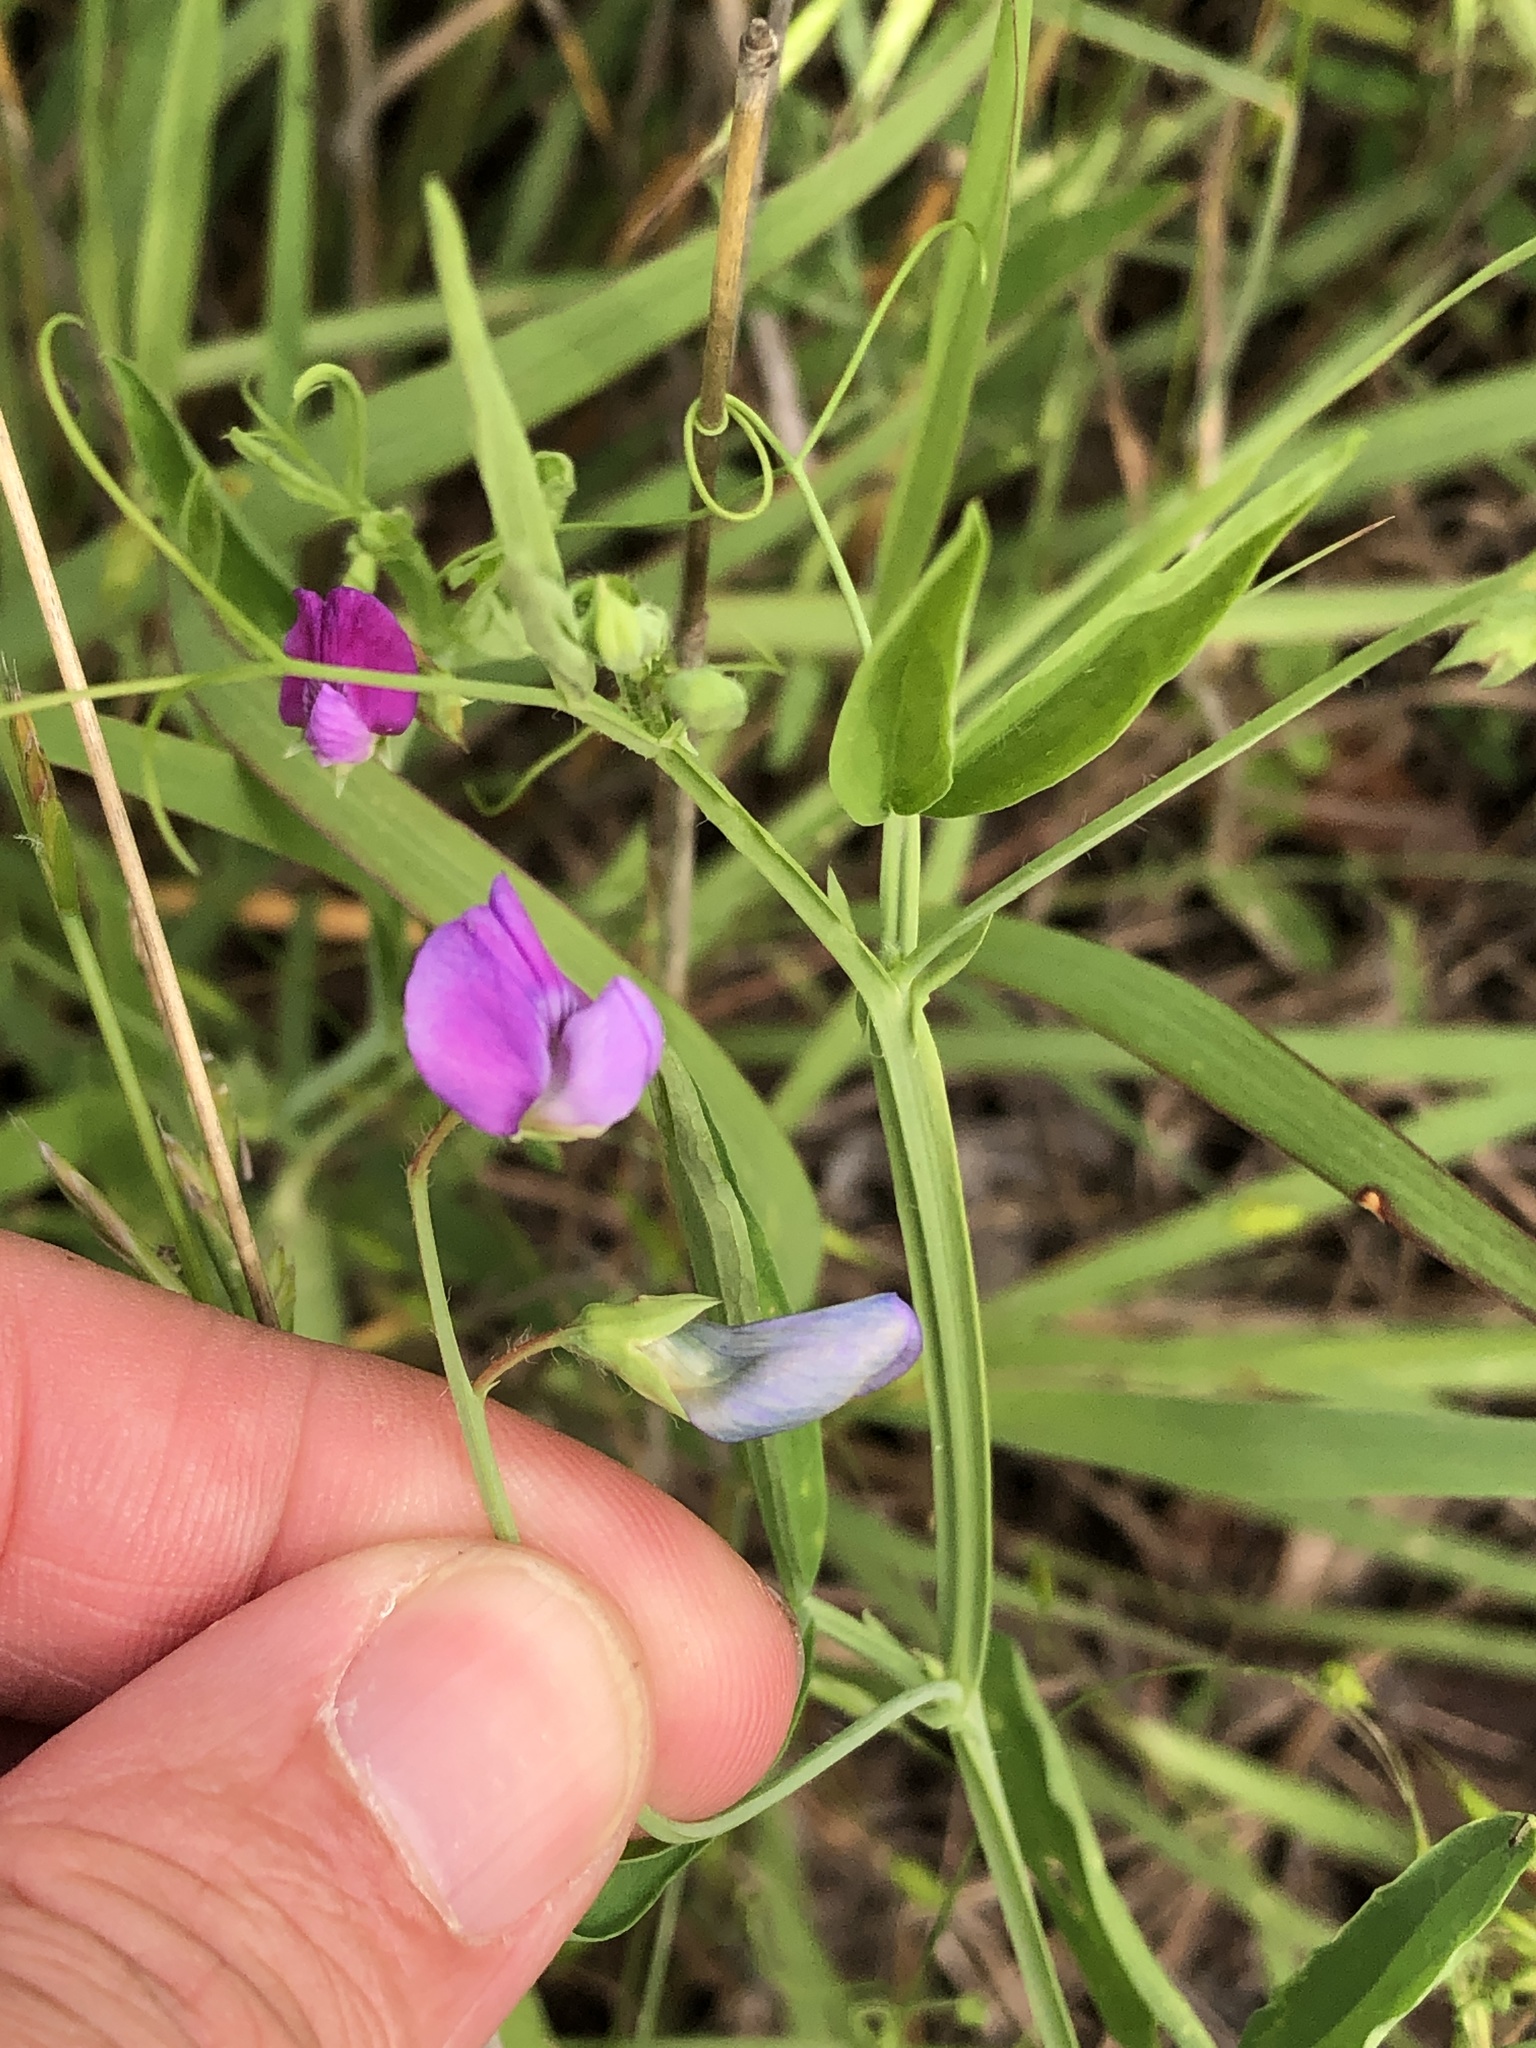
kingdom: Plantae
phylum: Tracheophyta
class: Magnoliopsida
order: Fabales
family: Fabaceae
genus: Lathyrus
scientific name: Lathyrus hirsutus
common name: Hairy vetchling
